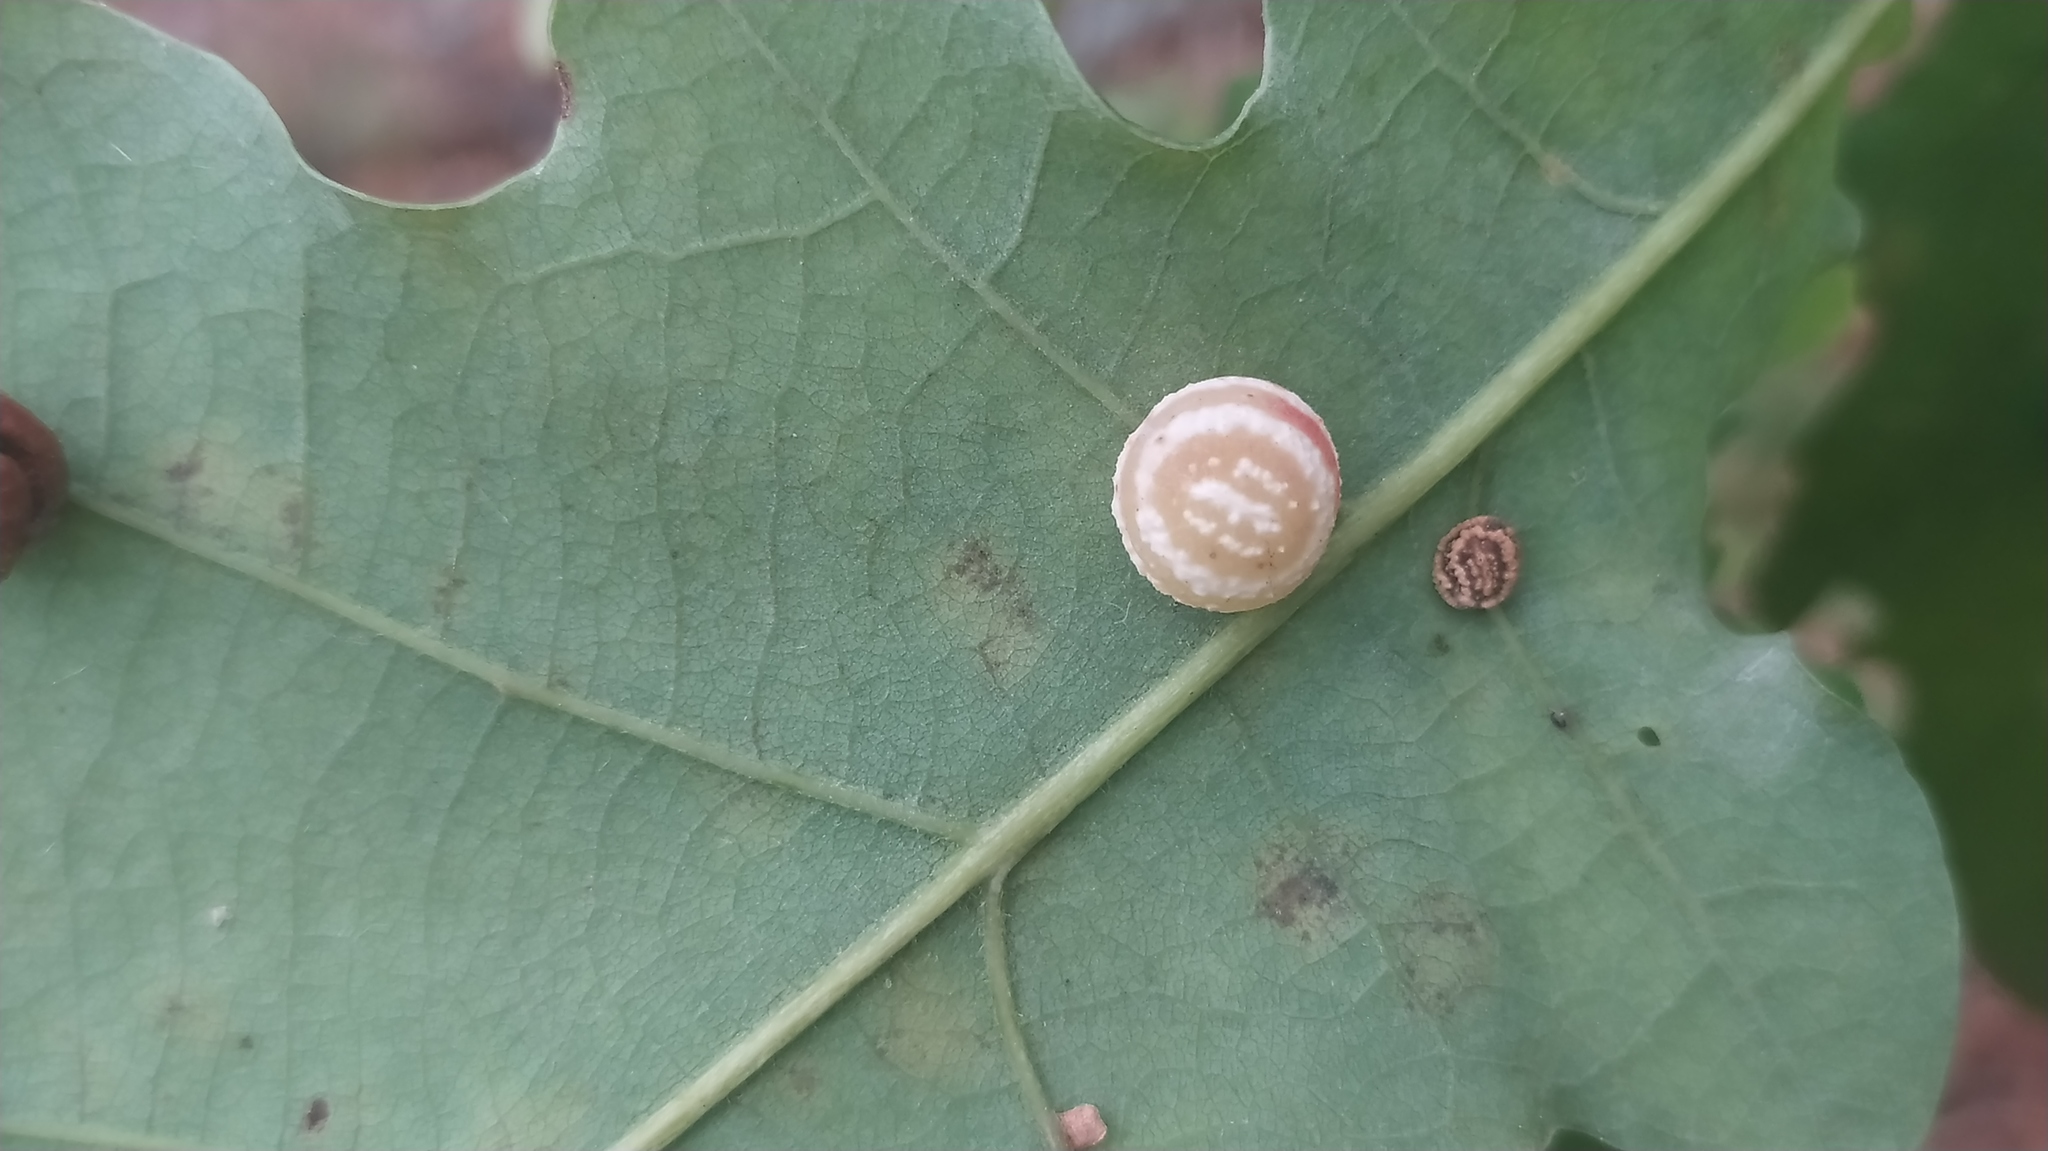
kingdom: Animalia
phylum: Arthropoda
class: Insecta
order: Hymenoptera
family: Cynipidae
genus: Cynips
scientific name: Cynips longiventris
